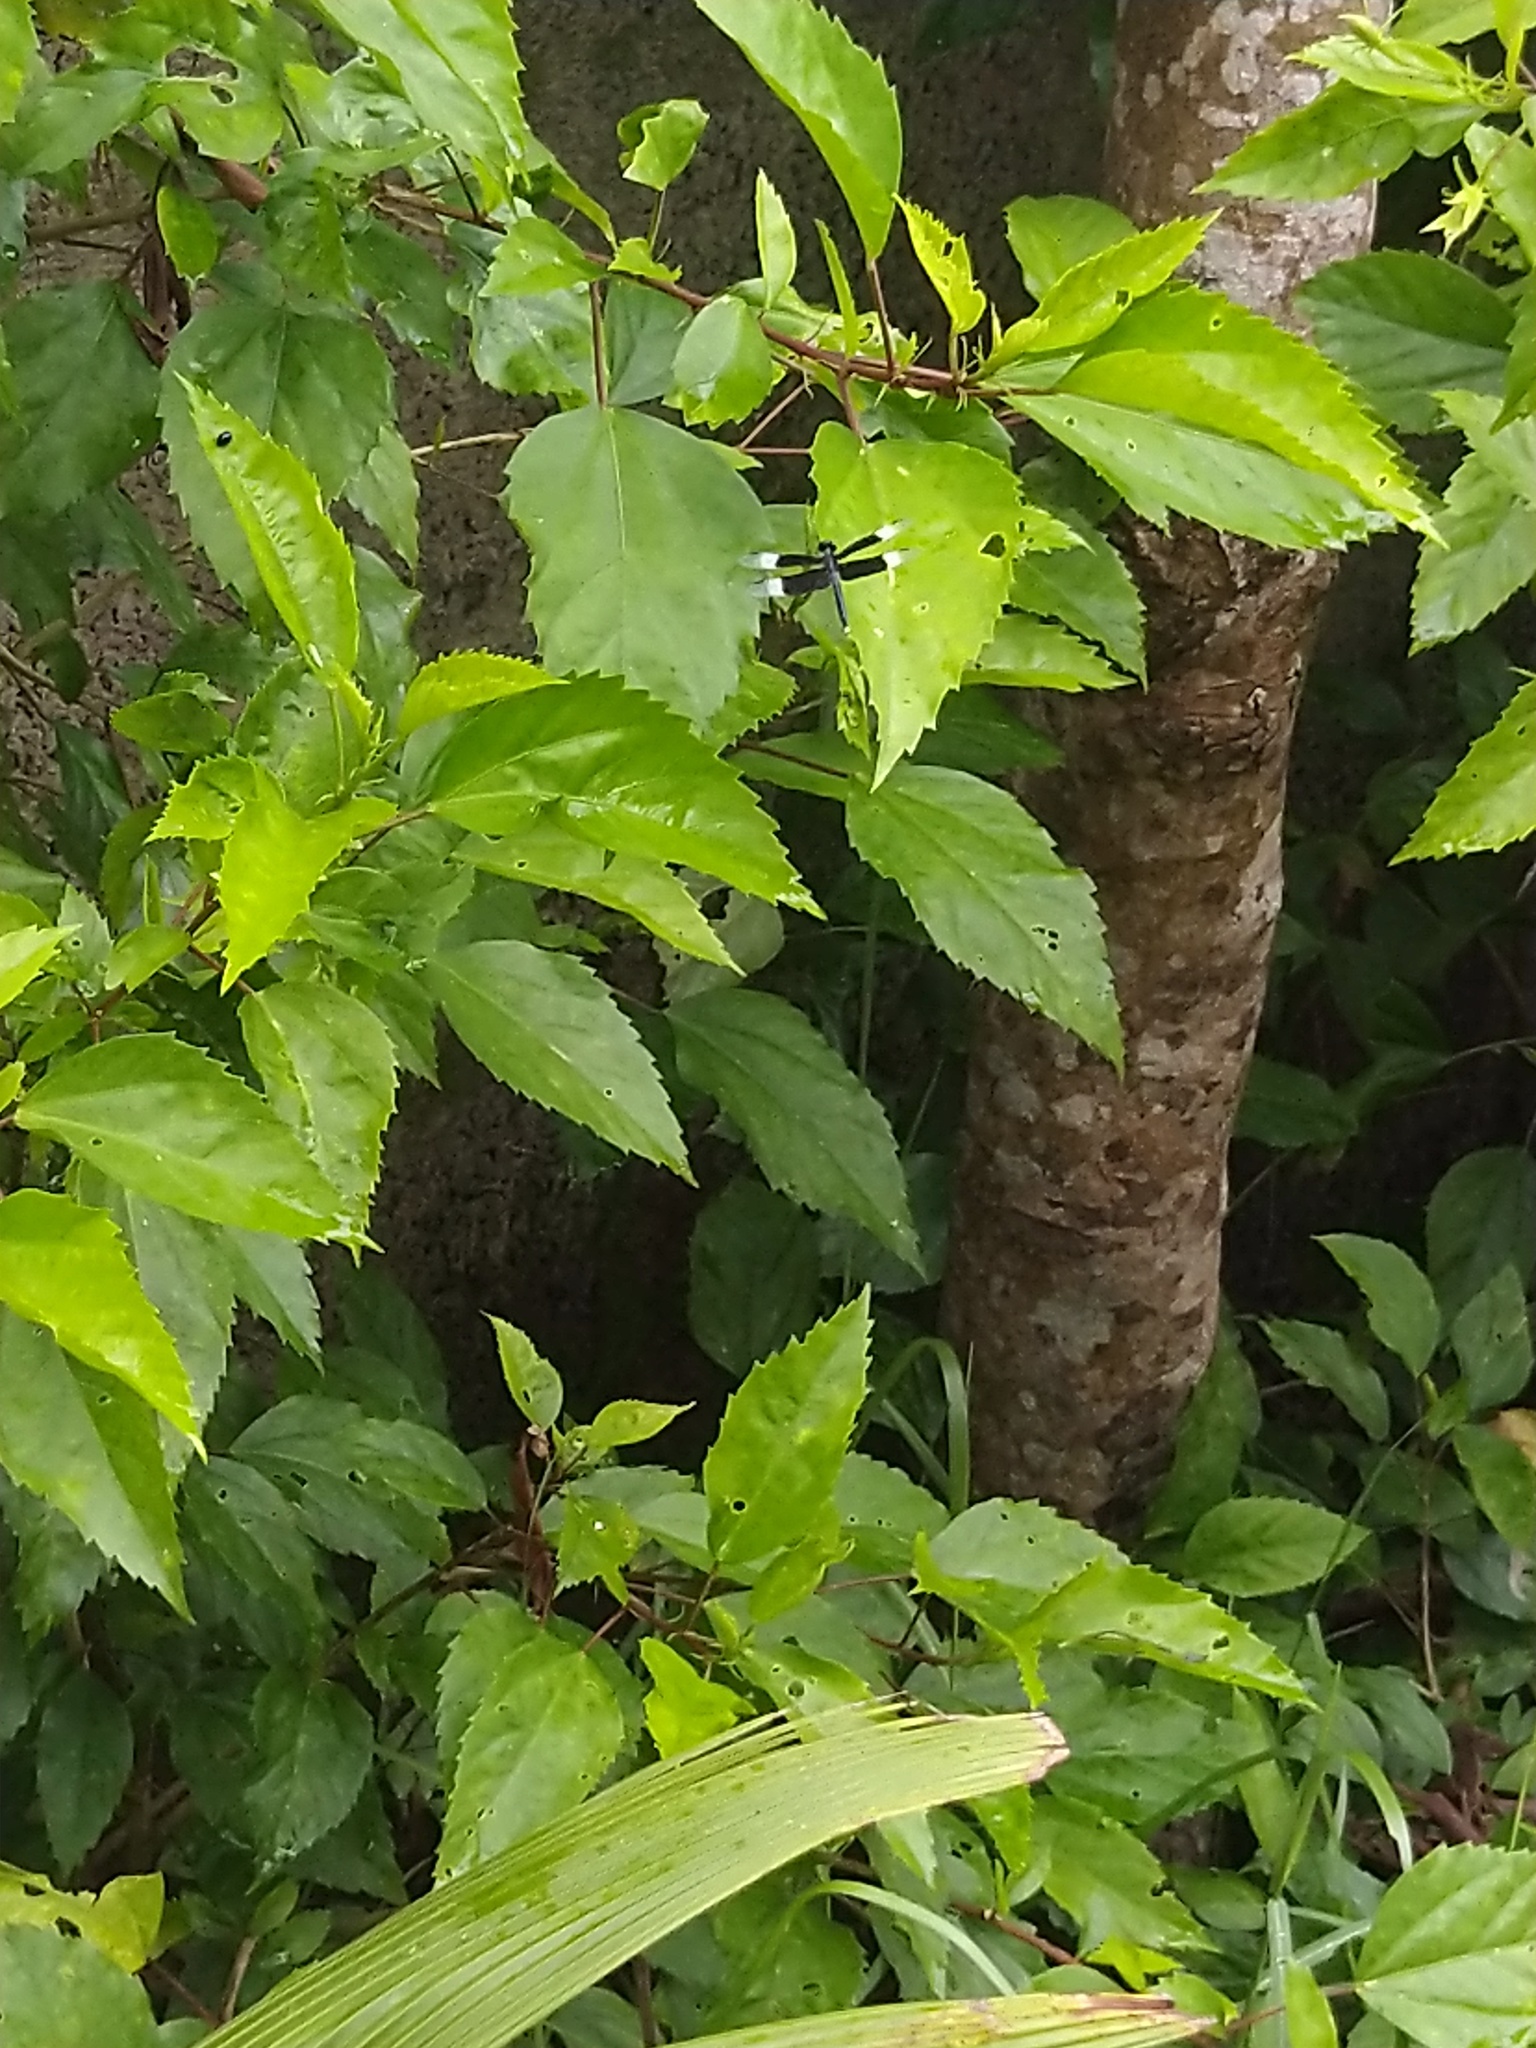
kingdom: Animalia
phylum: Arthropoda
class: Insecta
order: Odonata
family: Libellulidae
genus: Neurothemis
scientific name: Neurothemis tullia
